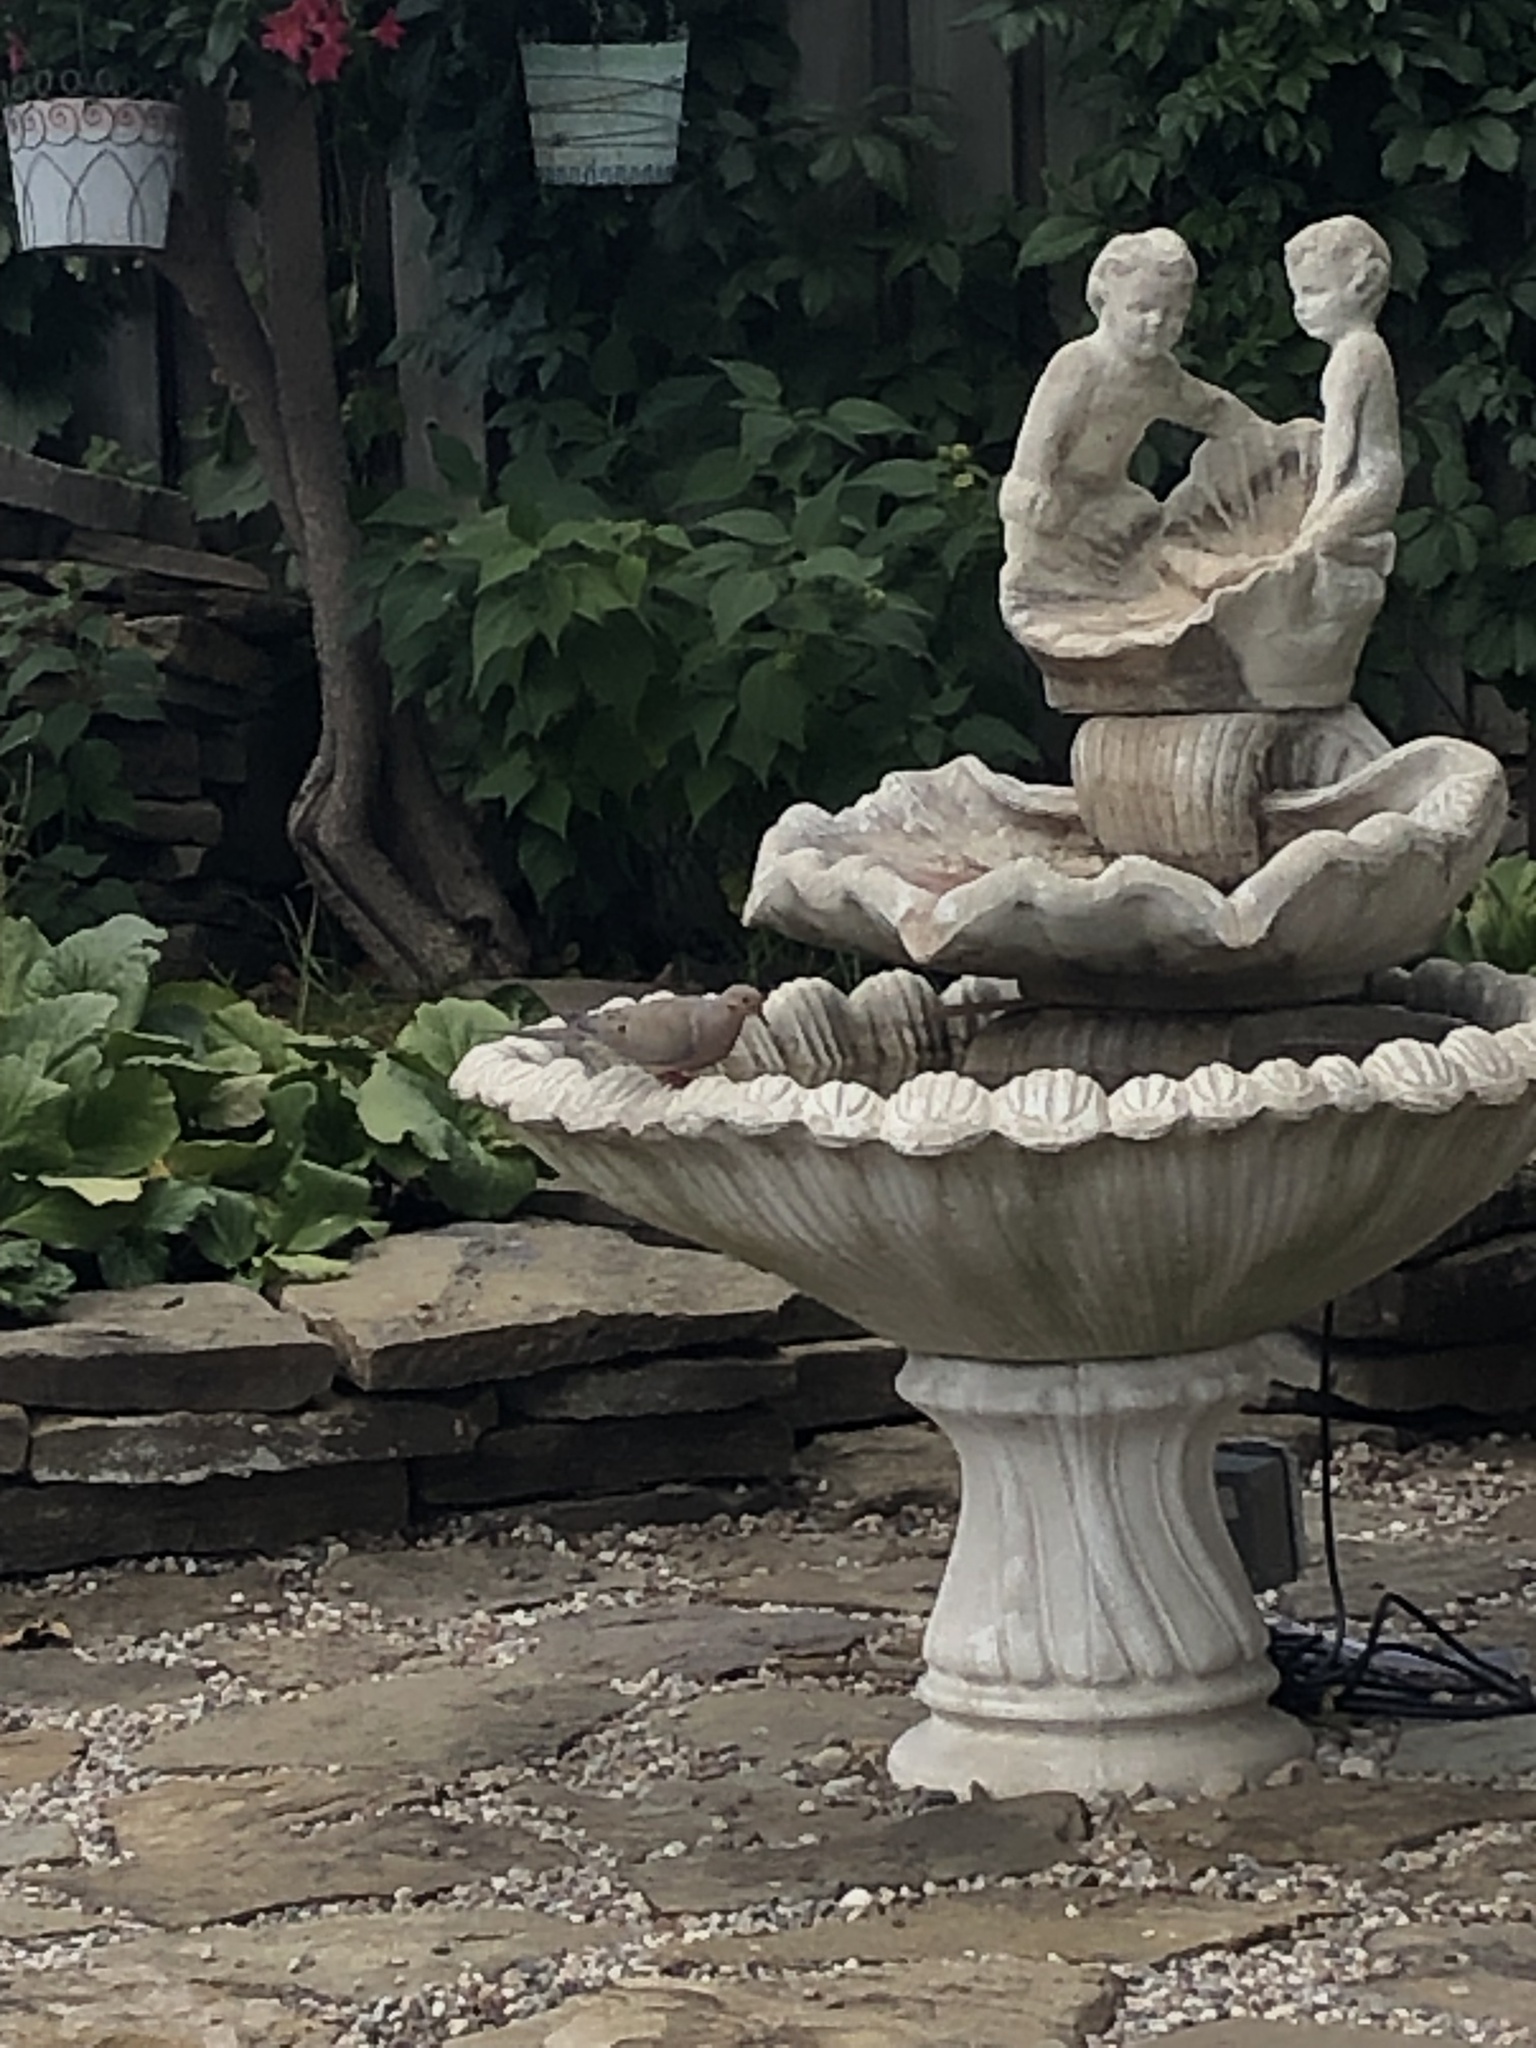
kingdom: Animalia
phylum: Chordata
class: Aves
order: Columbiformes
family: Columbidae
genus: Zenaida
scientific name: Zenaida macroura
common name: Mourning dove
